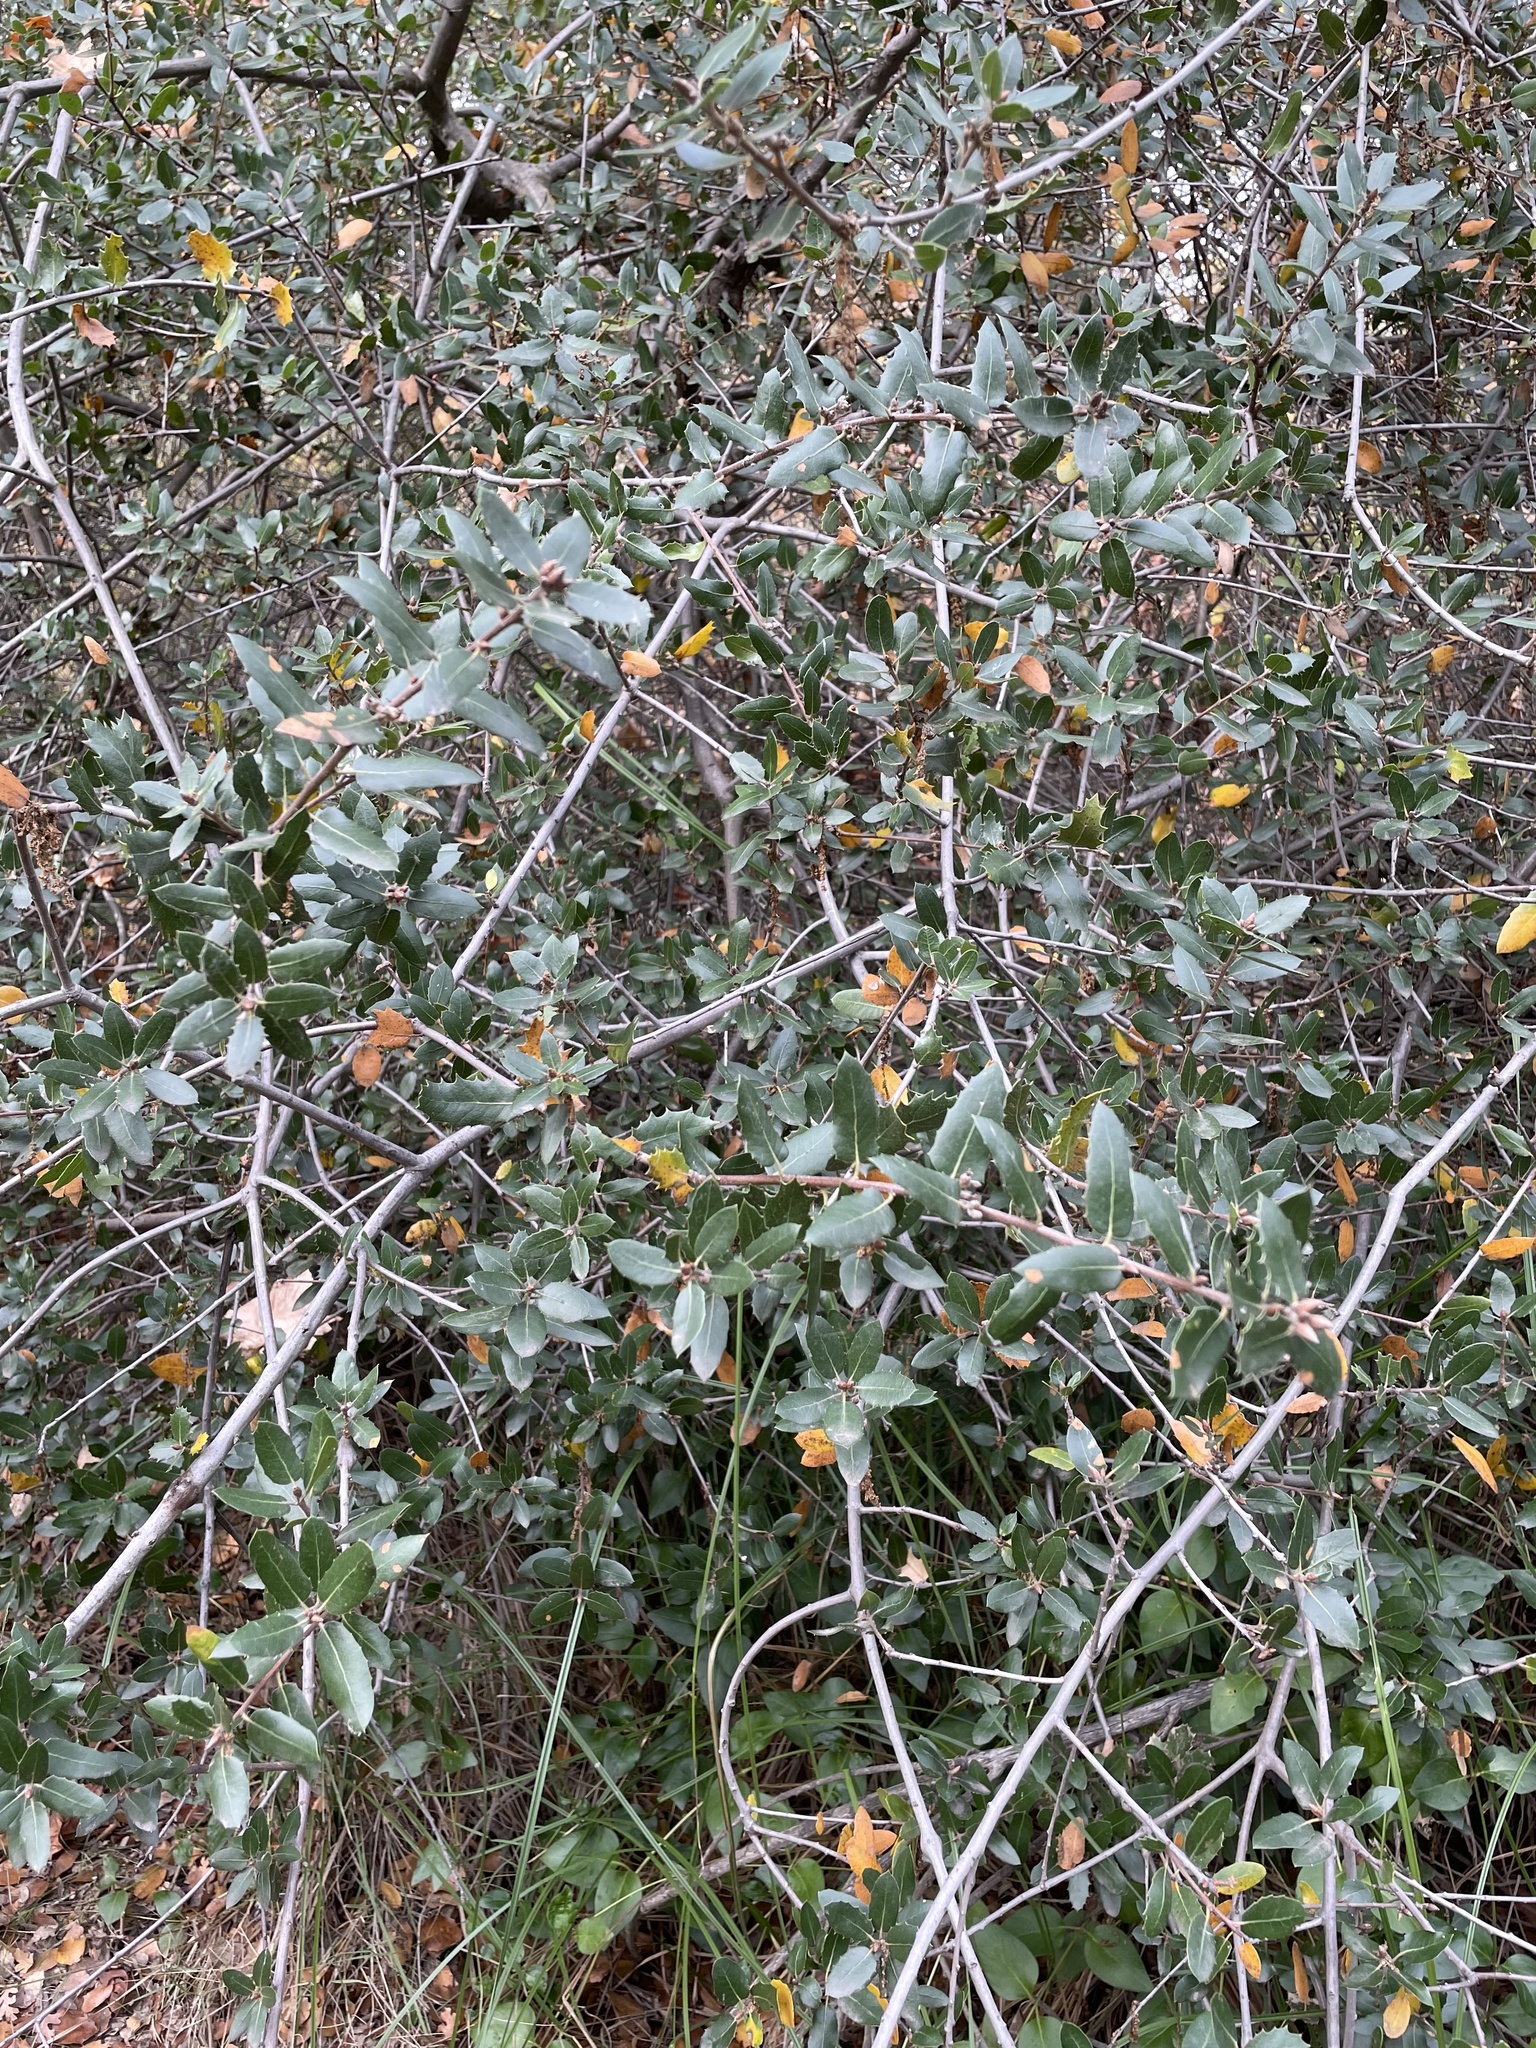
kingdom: Plantae
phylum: Tracheophyta
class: Magnoliopsida
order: Fagales
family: Fagaceae
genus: Quercus
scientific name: Quercus wislizeni
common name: Interior live oak
